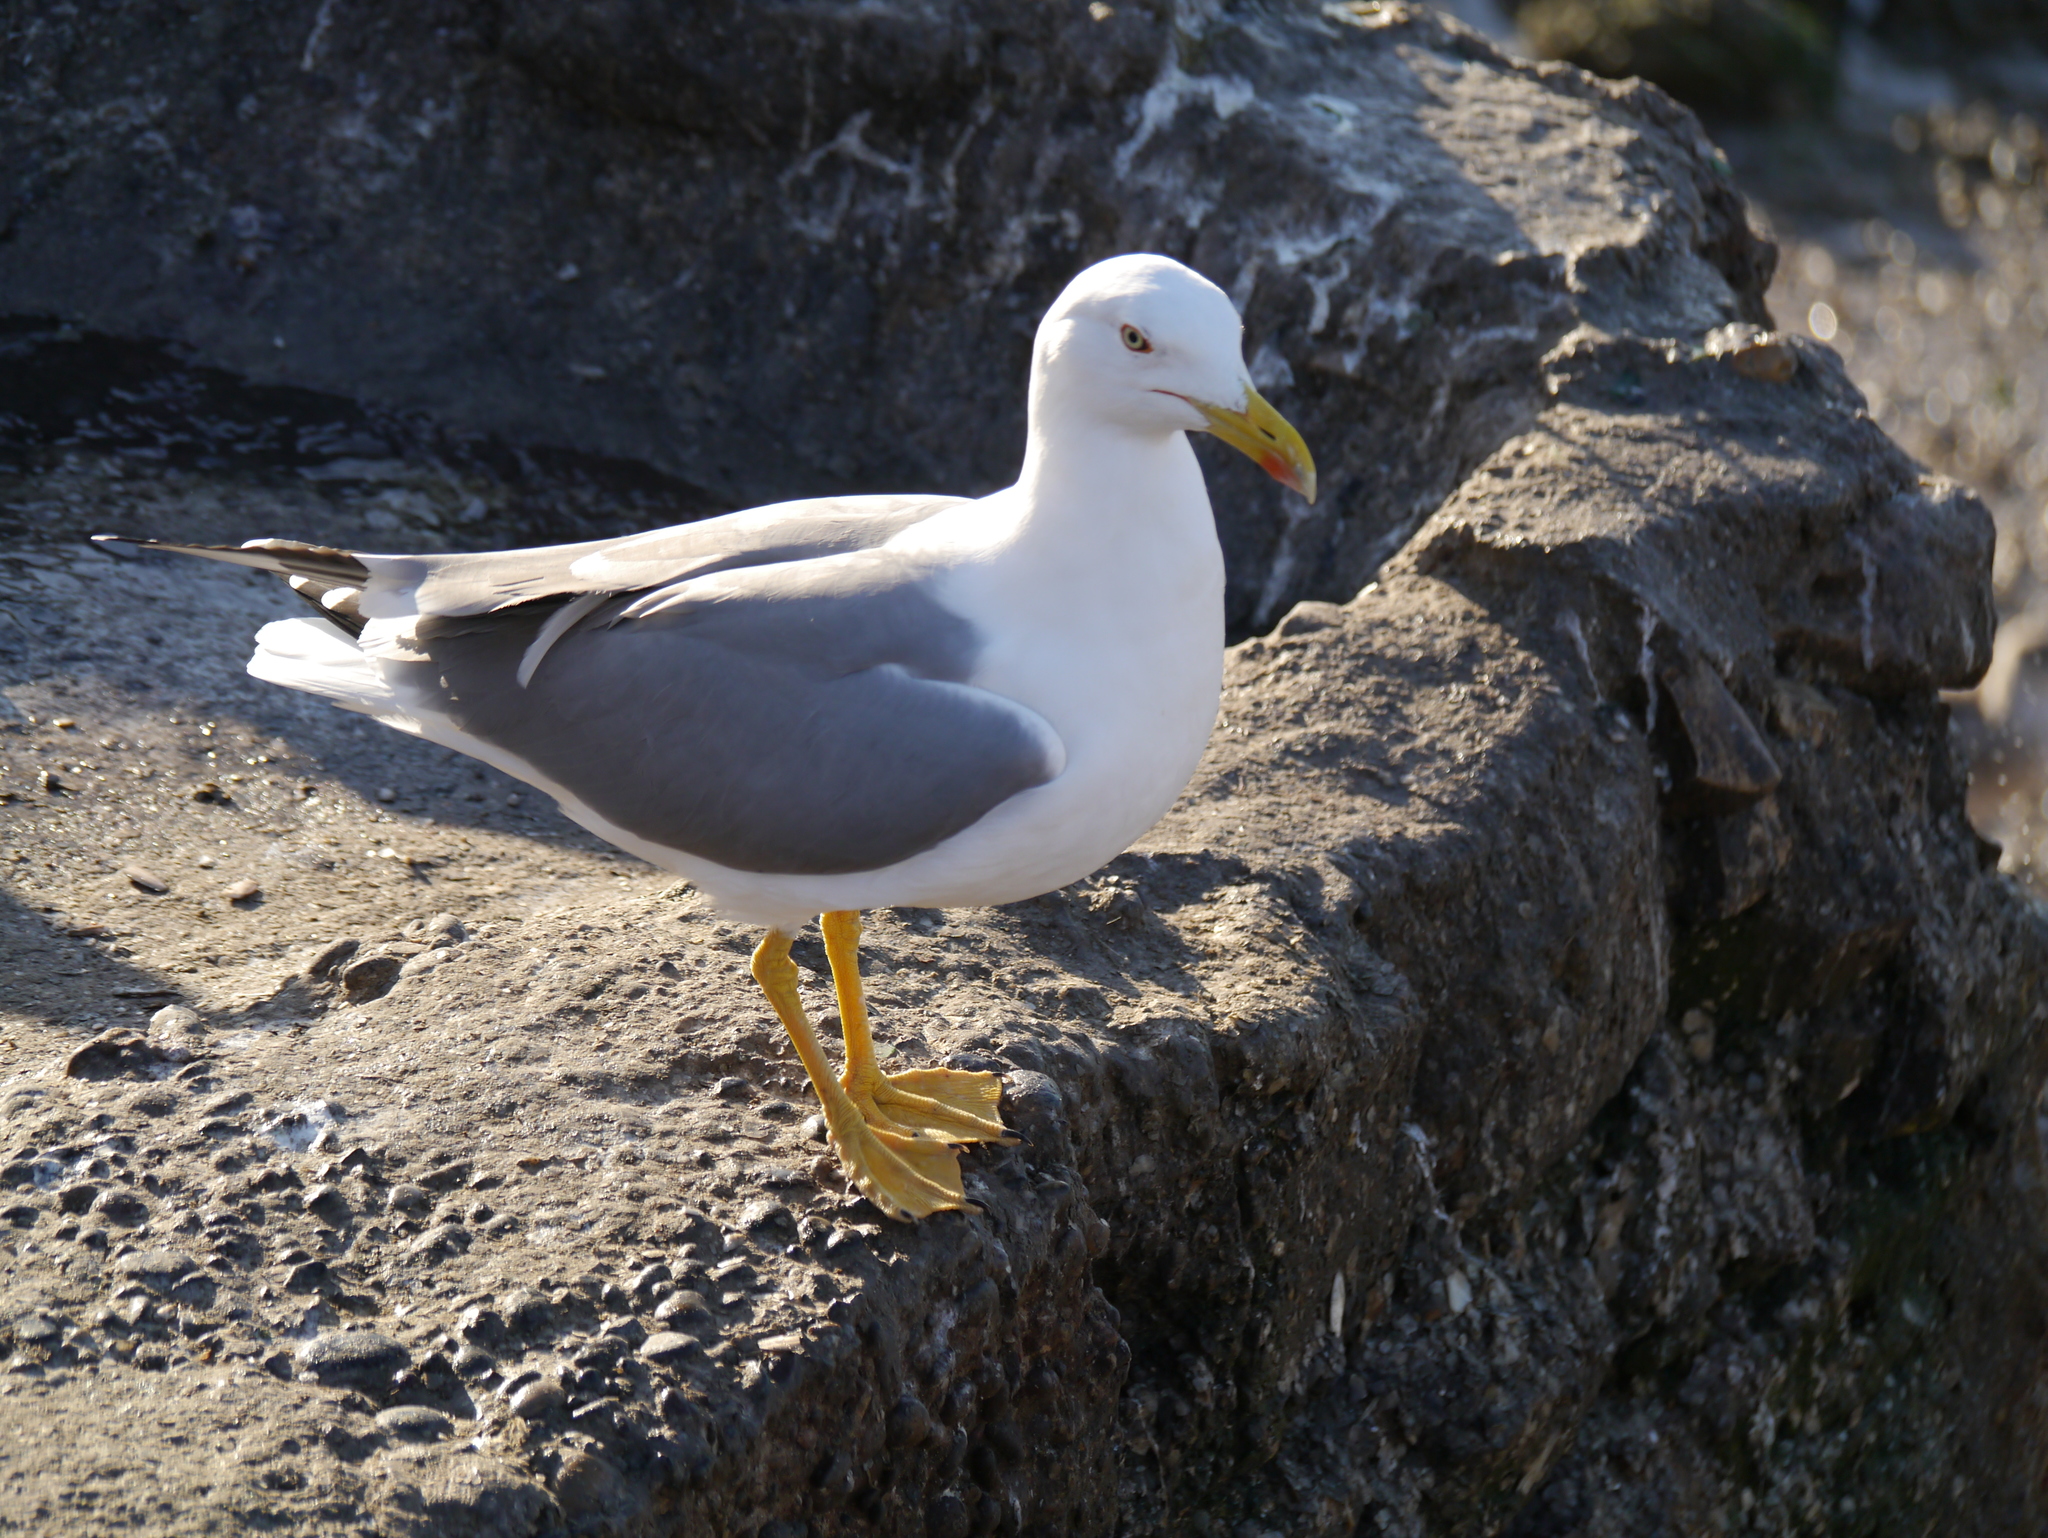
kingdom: Animalia
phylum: Chordata
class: Aves
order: Charadriiformes
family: Laridae
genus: Larus
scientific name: Larus michahellis
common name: Yellow-legged gull
